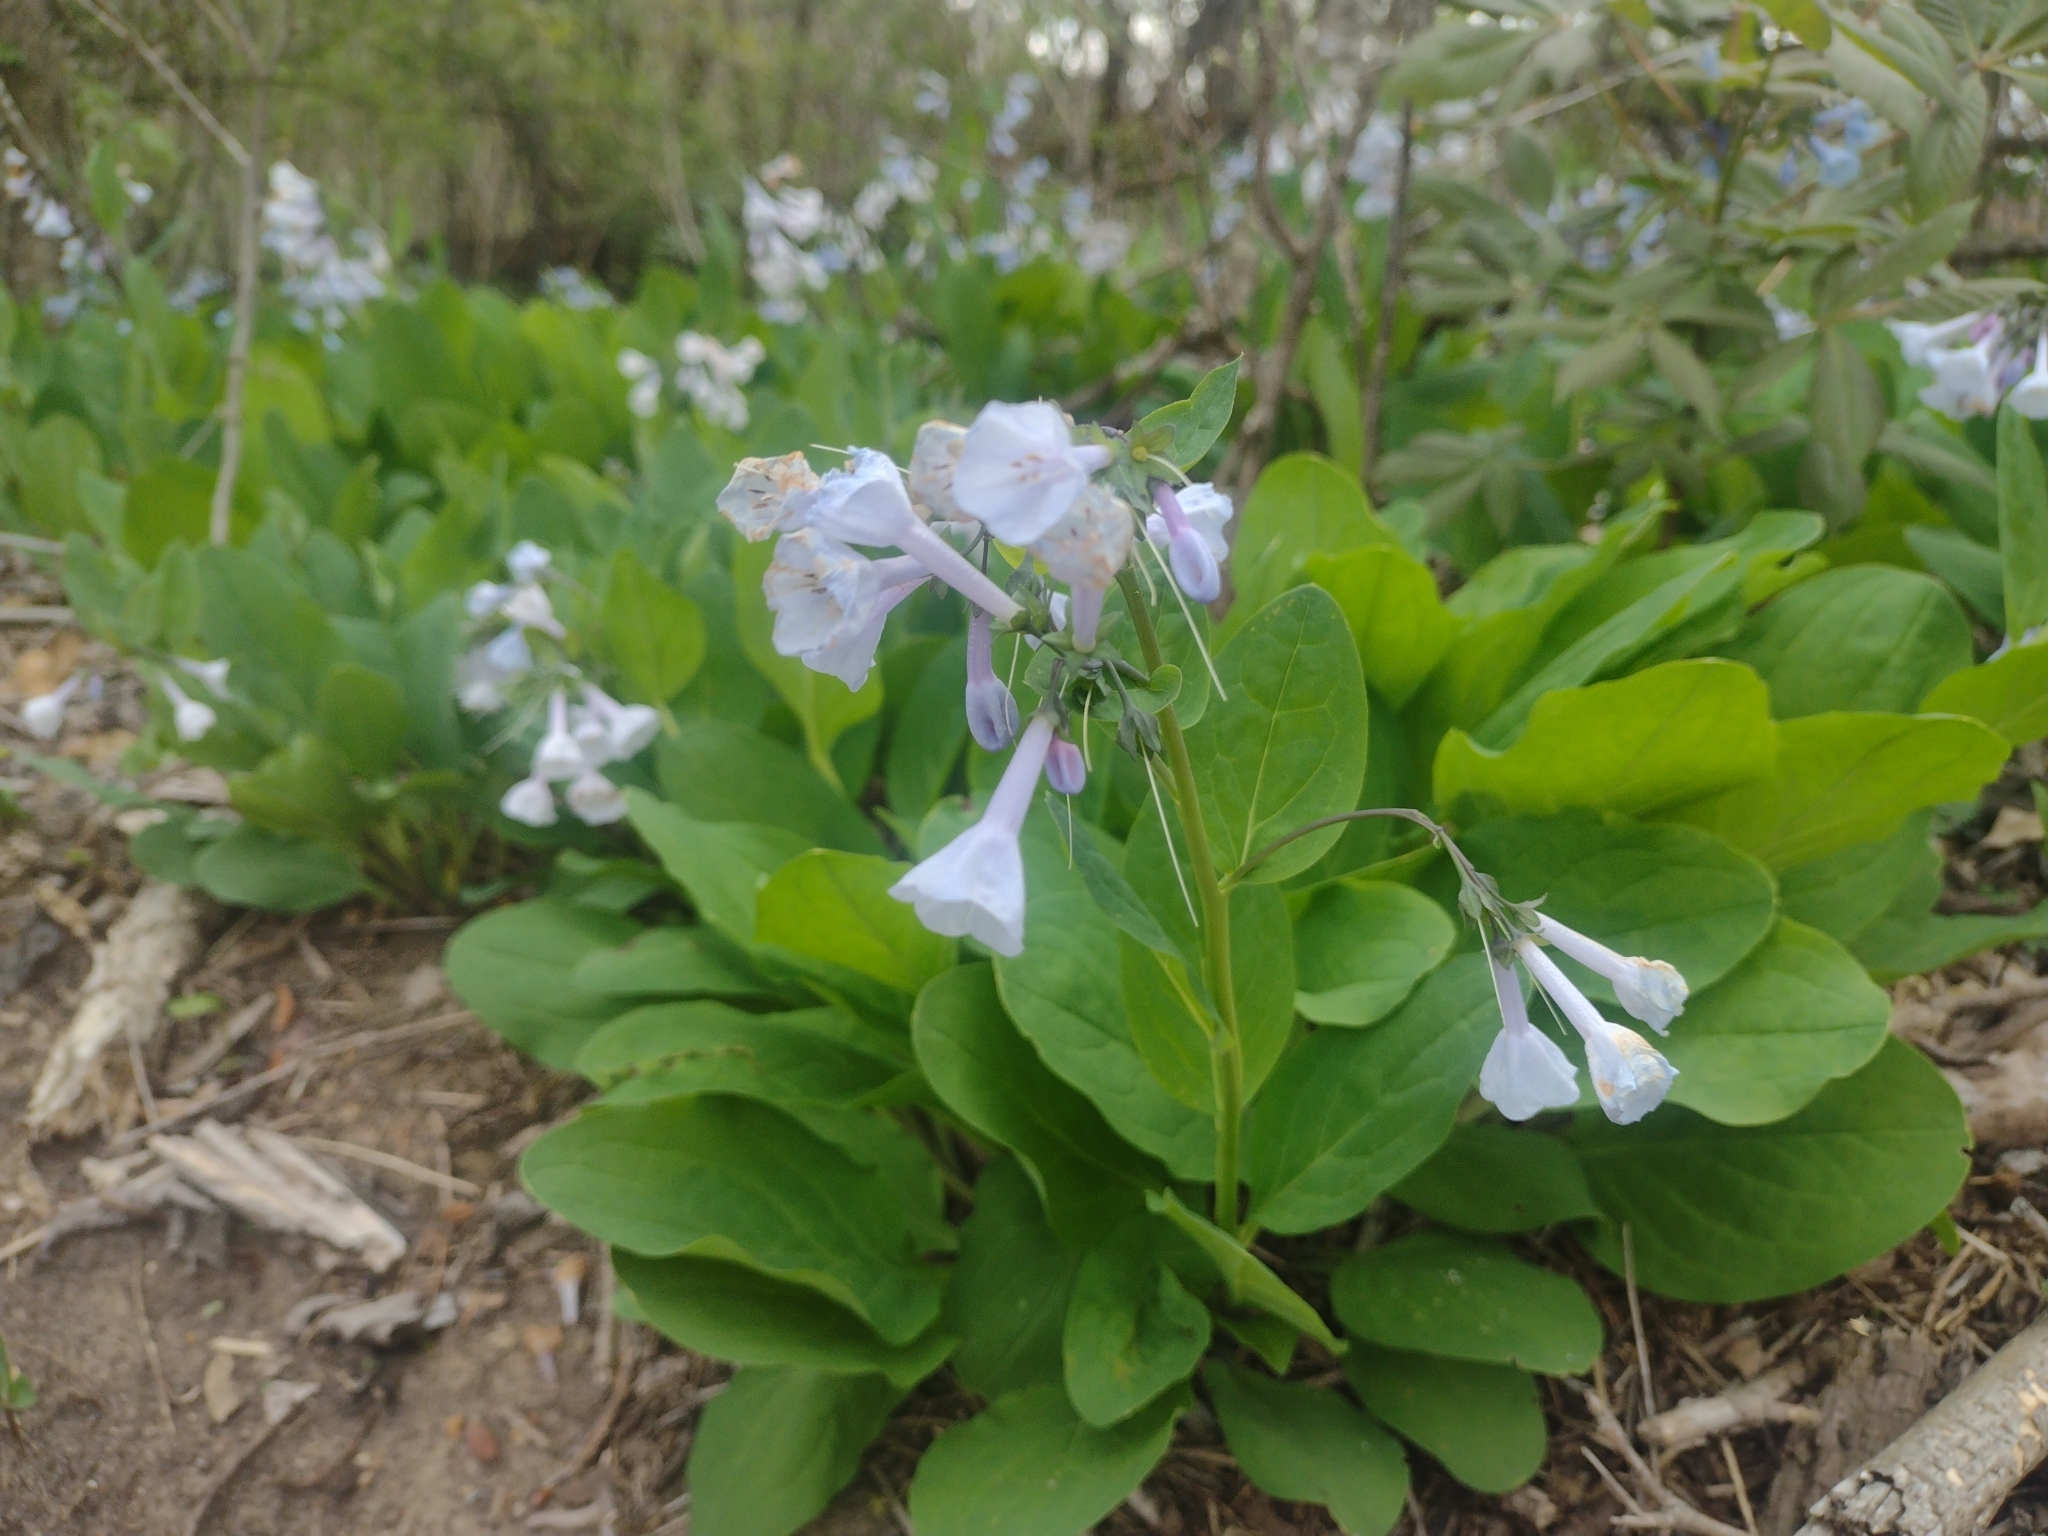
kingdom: Plantae
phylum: Tracheophyta
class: Magnoliopsida
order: Boraginales
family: Boraginaceae
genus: Mertensia
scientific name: Mertensia virginica
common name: Virginia bluebells
